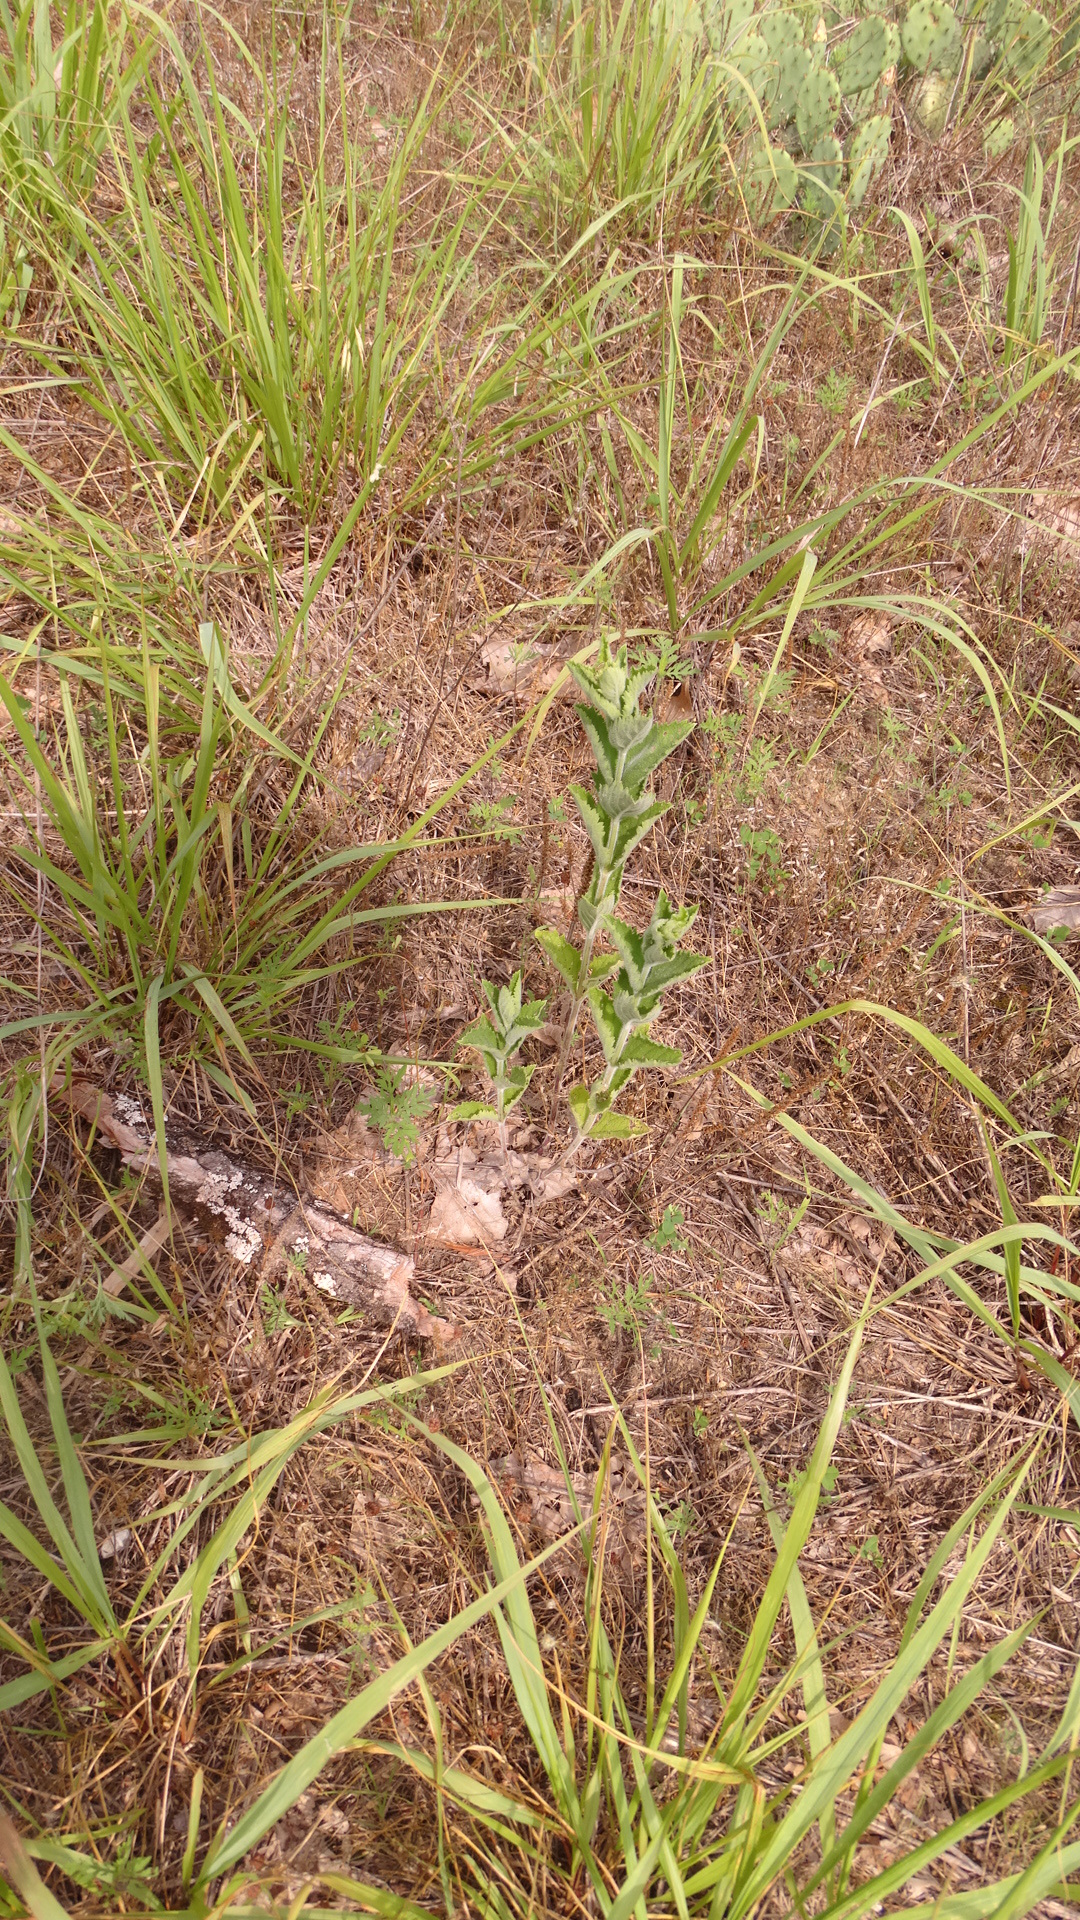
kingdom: Plantae
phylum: Tracheophyta
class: Magnoliopsida
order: Lamiales
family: Verbenaceae
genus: Verbena
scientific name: Verbena stricta
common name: Hoary vervain
